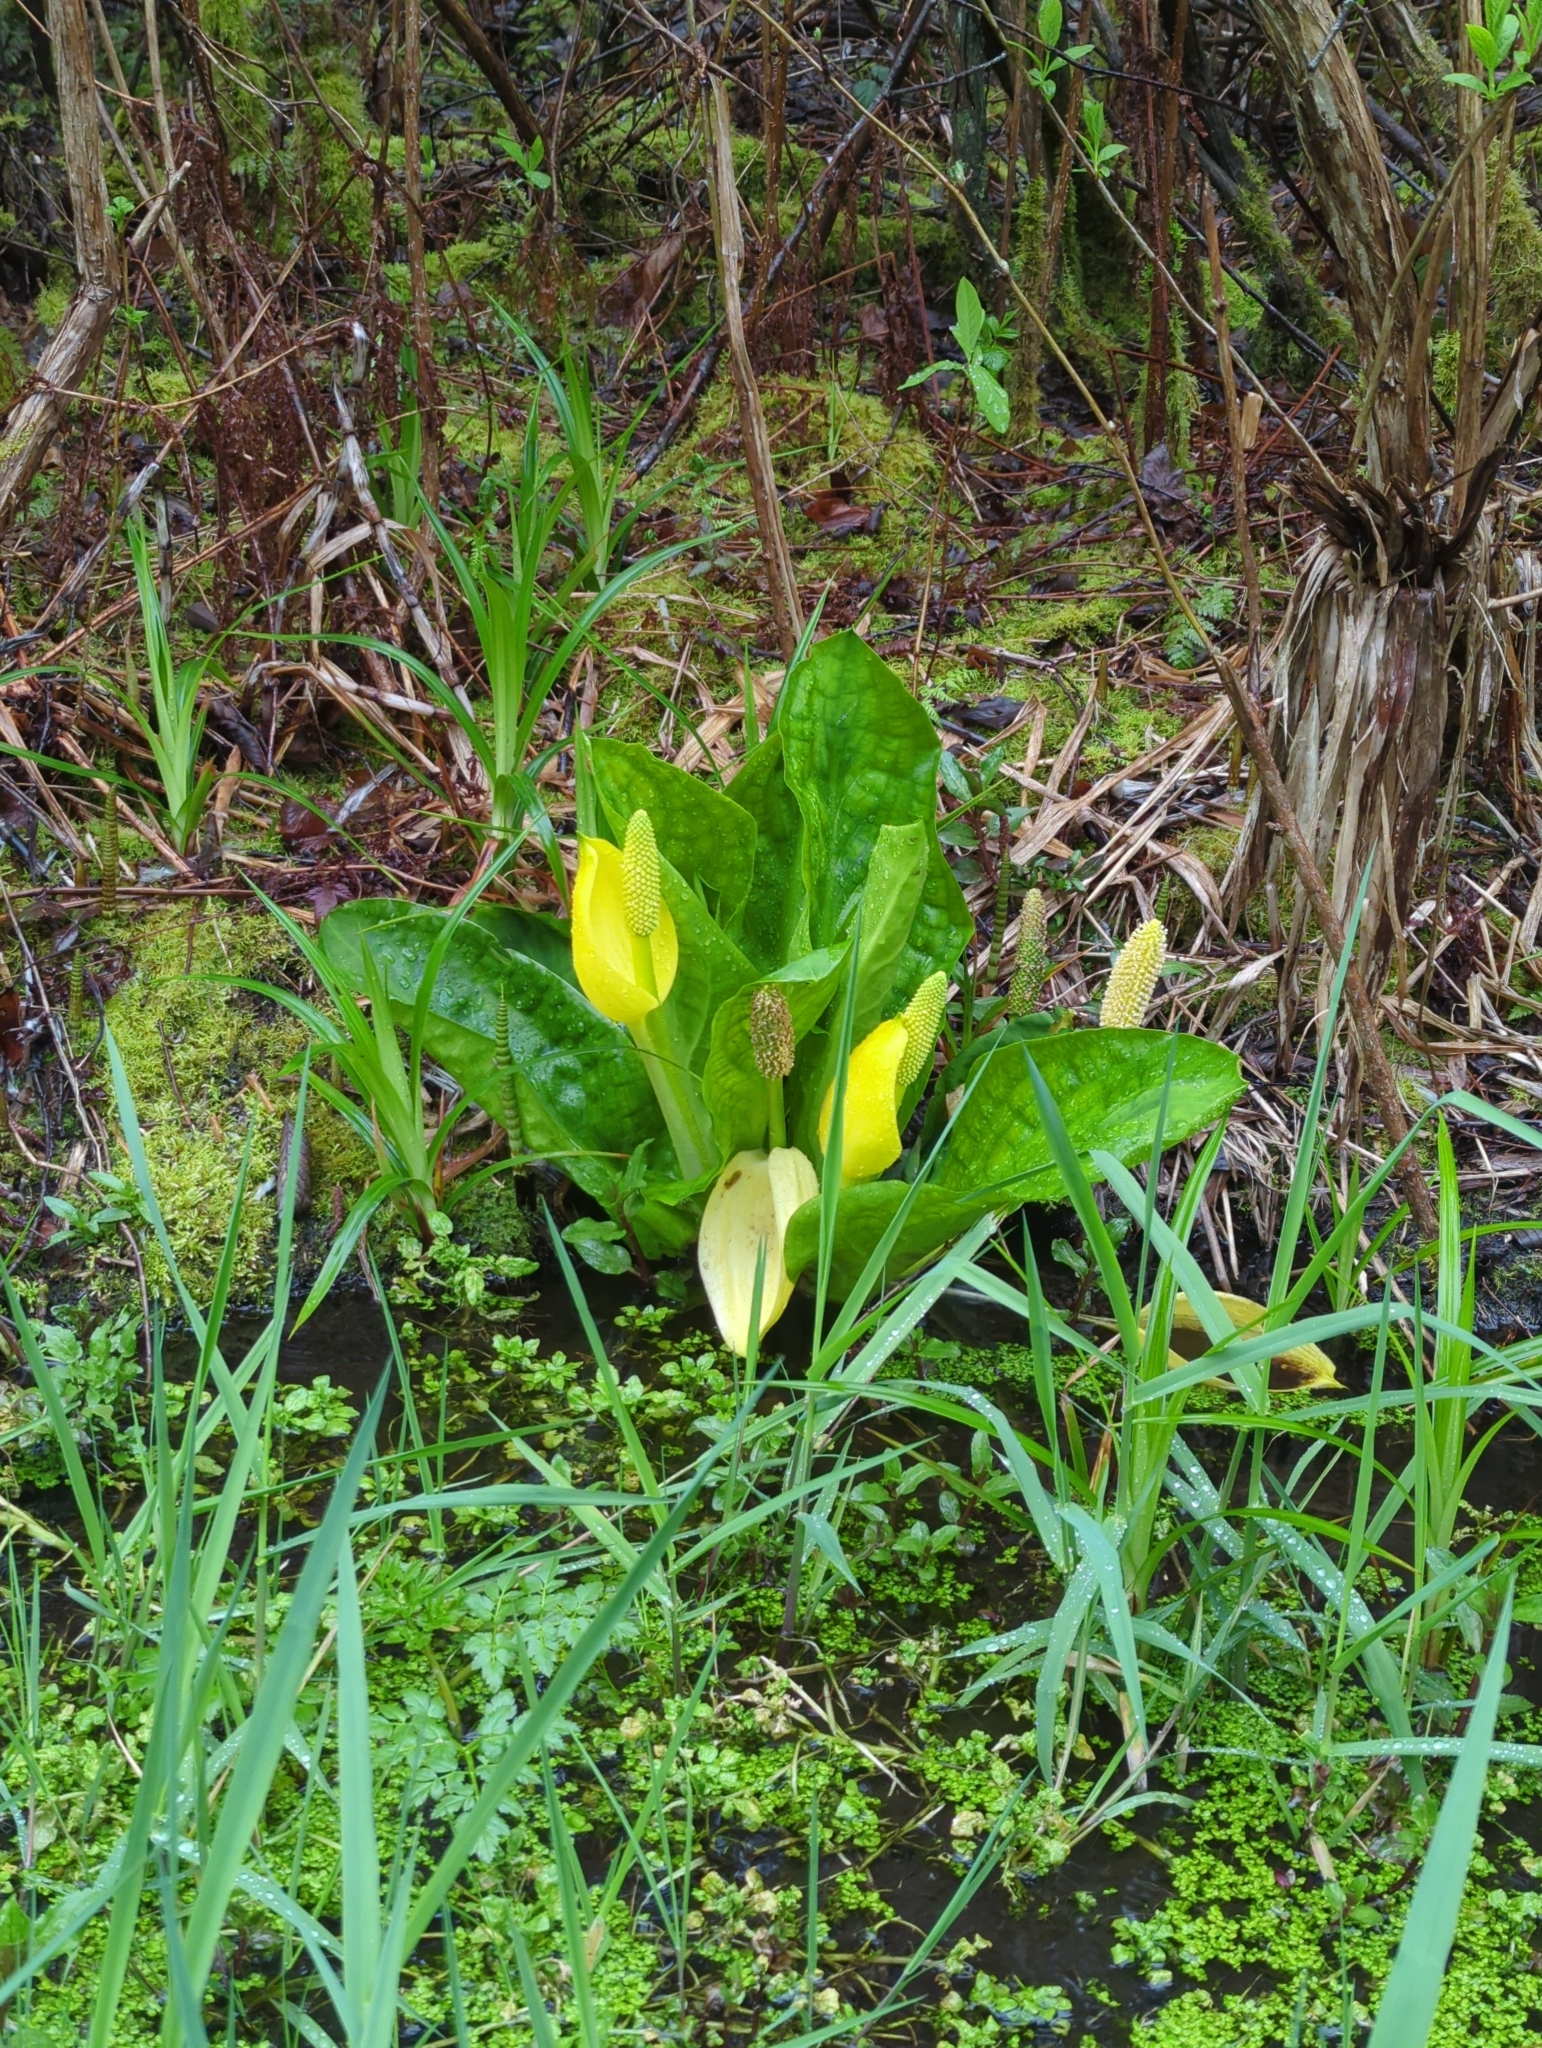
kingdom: Plantae
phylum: Tracheophyta
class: Liliopsida
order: Alismatales
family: Araceae
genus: Lysichiton
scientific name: Lysichiton americanus
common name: American skunk cabbage
